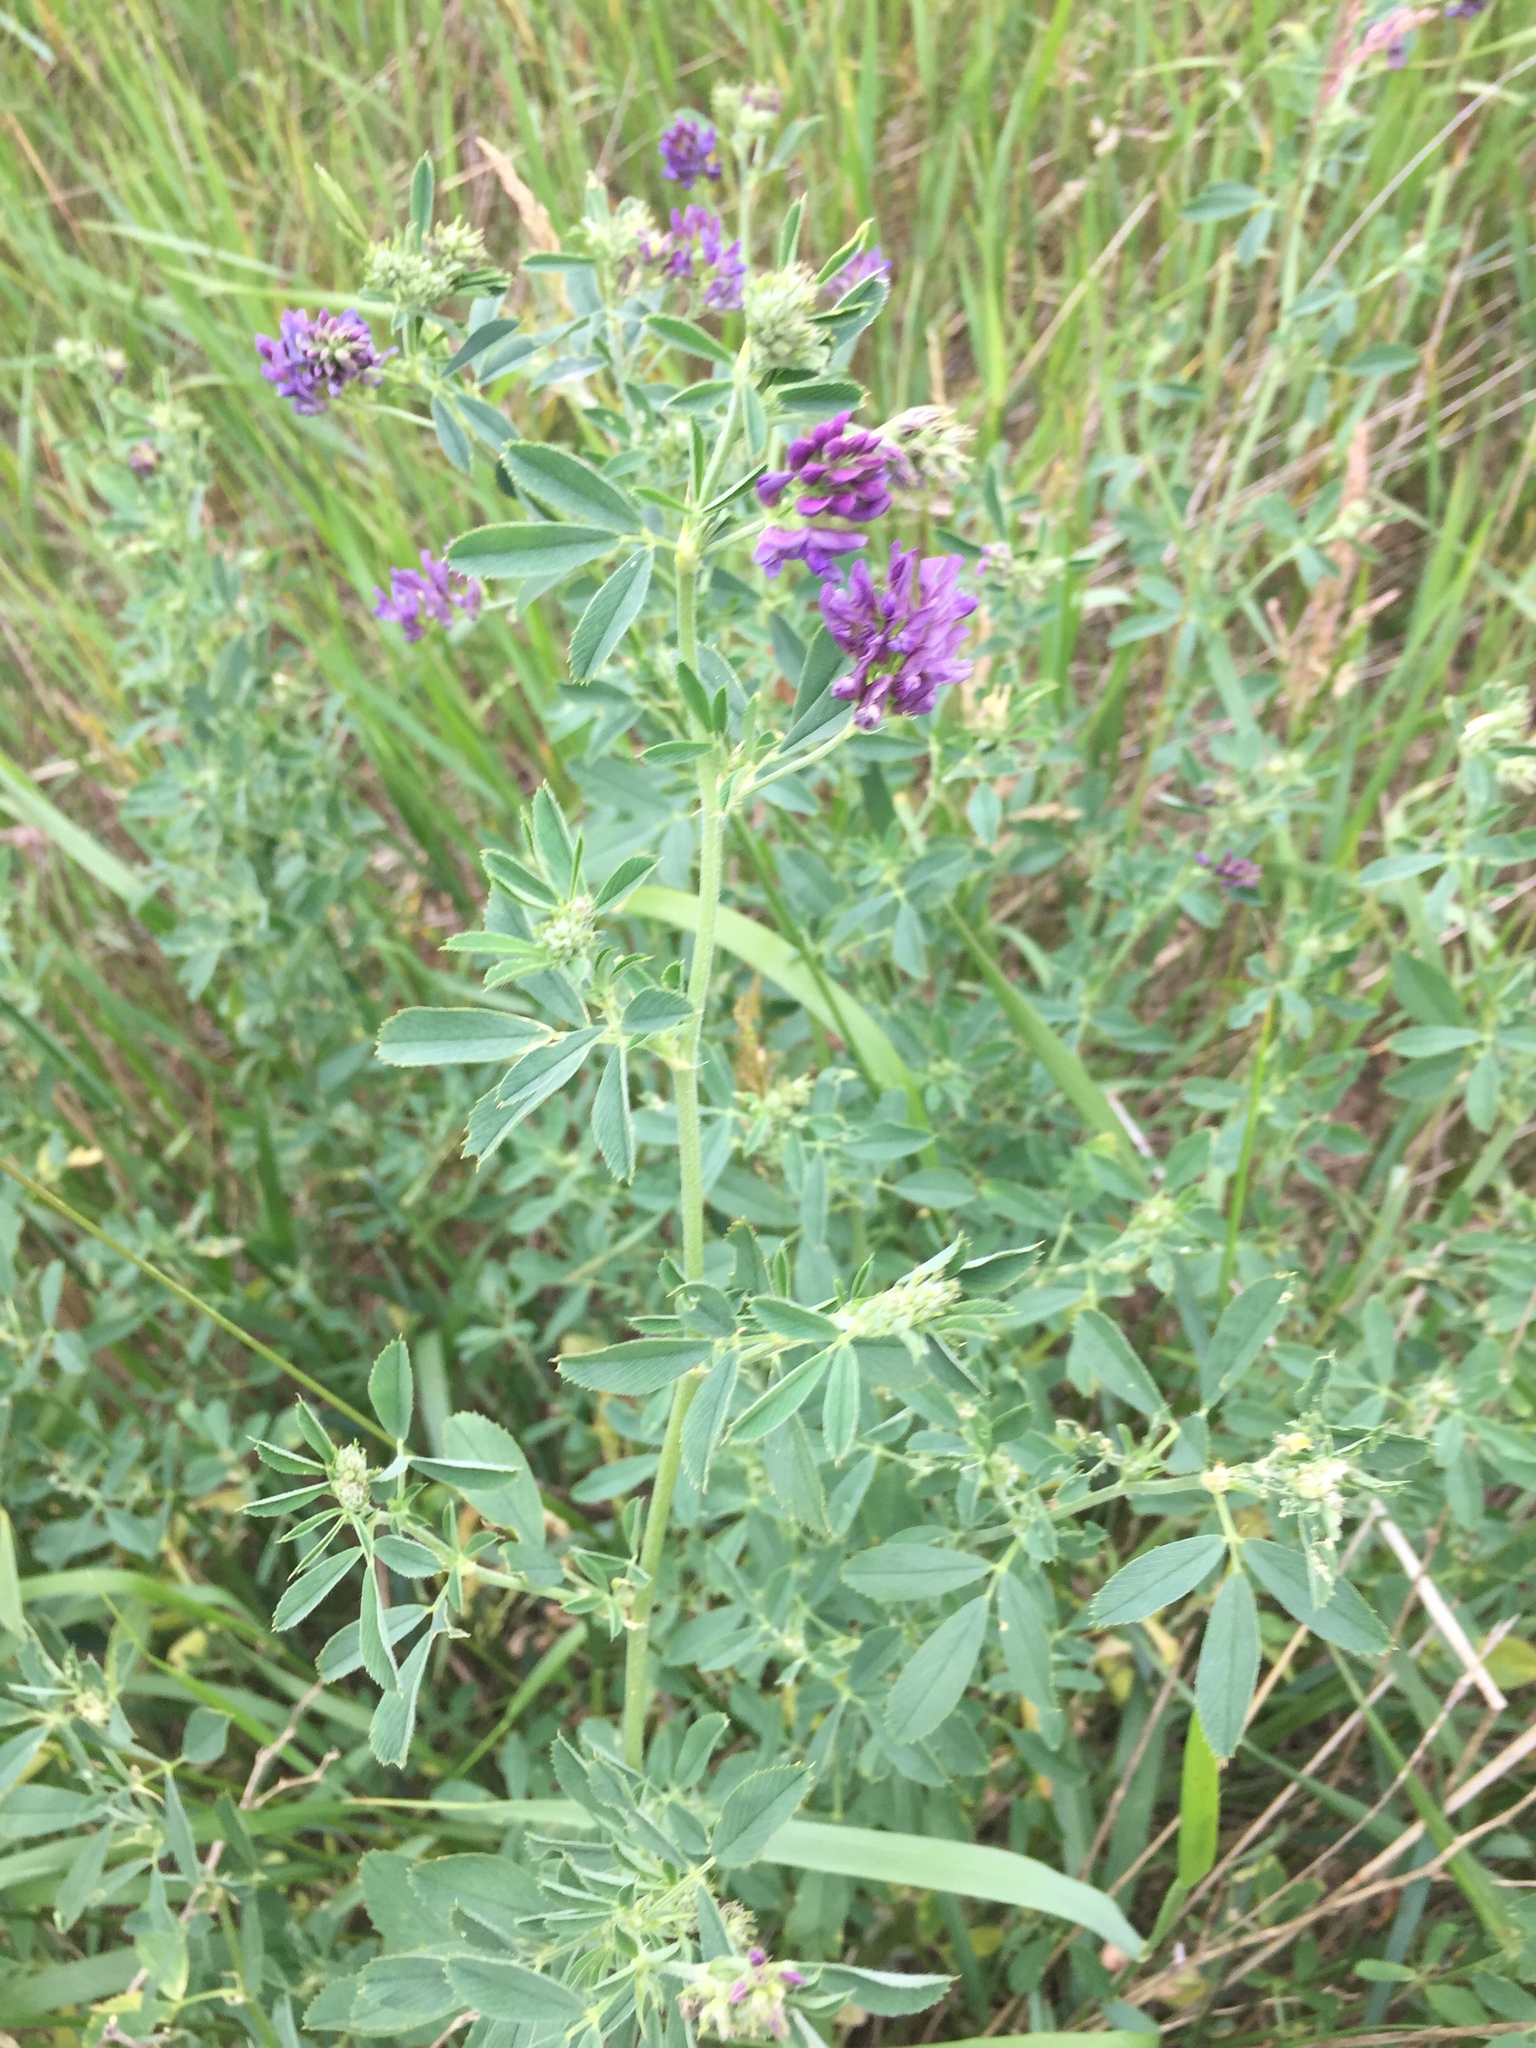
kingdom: Plantae
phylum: Tracheophyta
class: Magnoliopsida
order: Fabales
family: Fabaceae
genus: Medicago
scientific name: Medicago sativa
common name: Alfalfa
